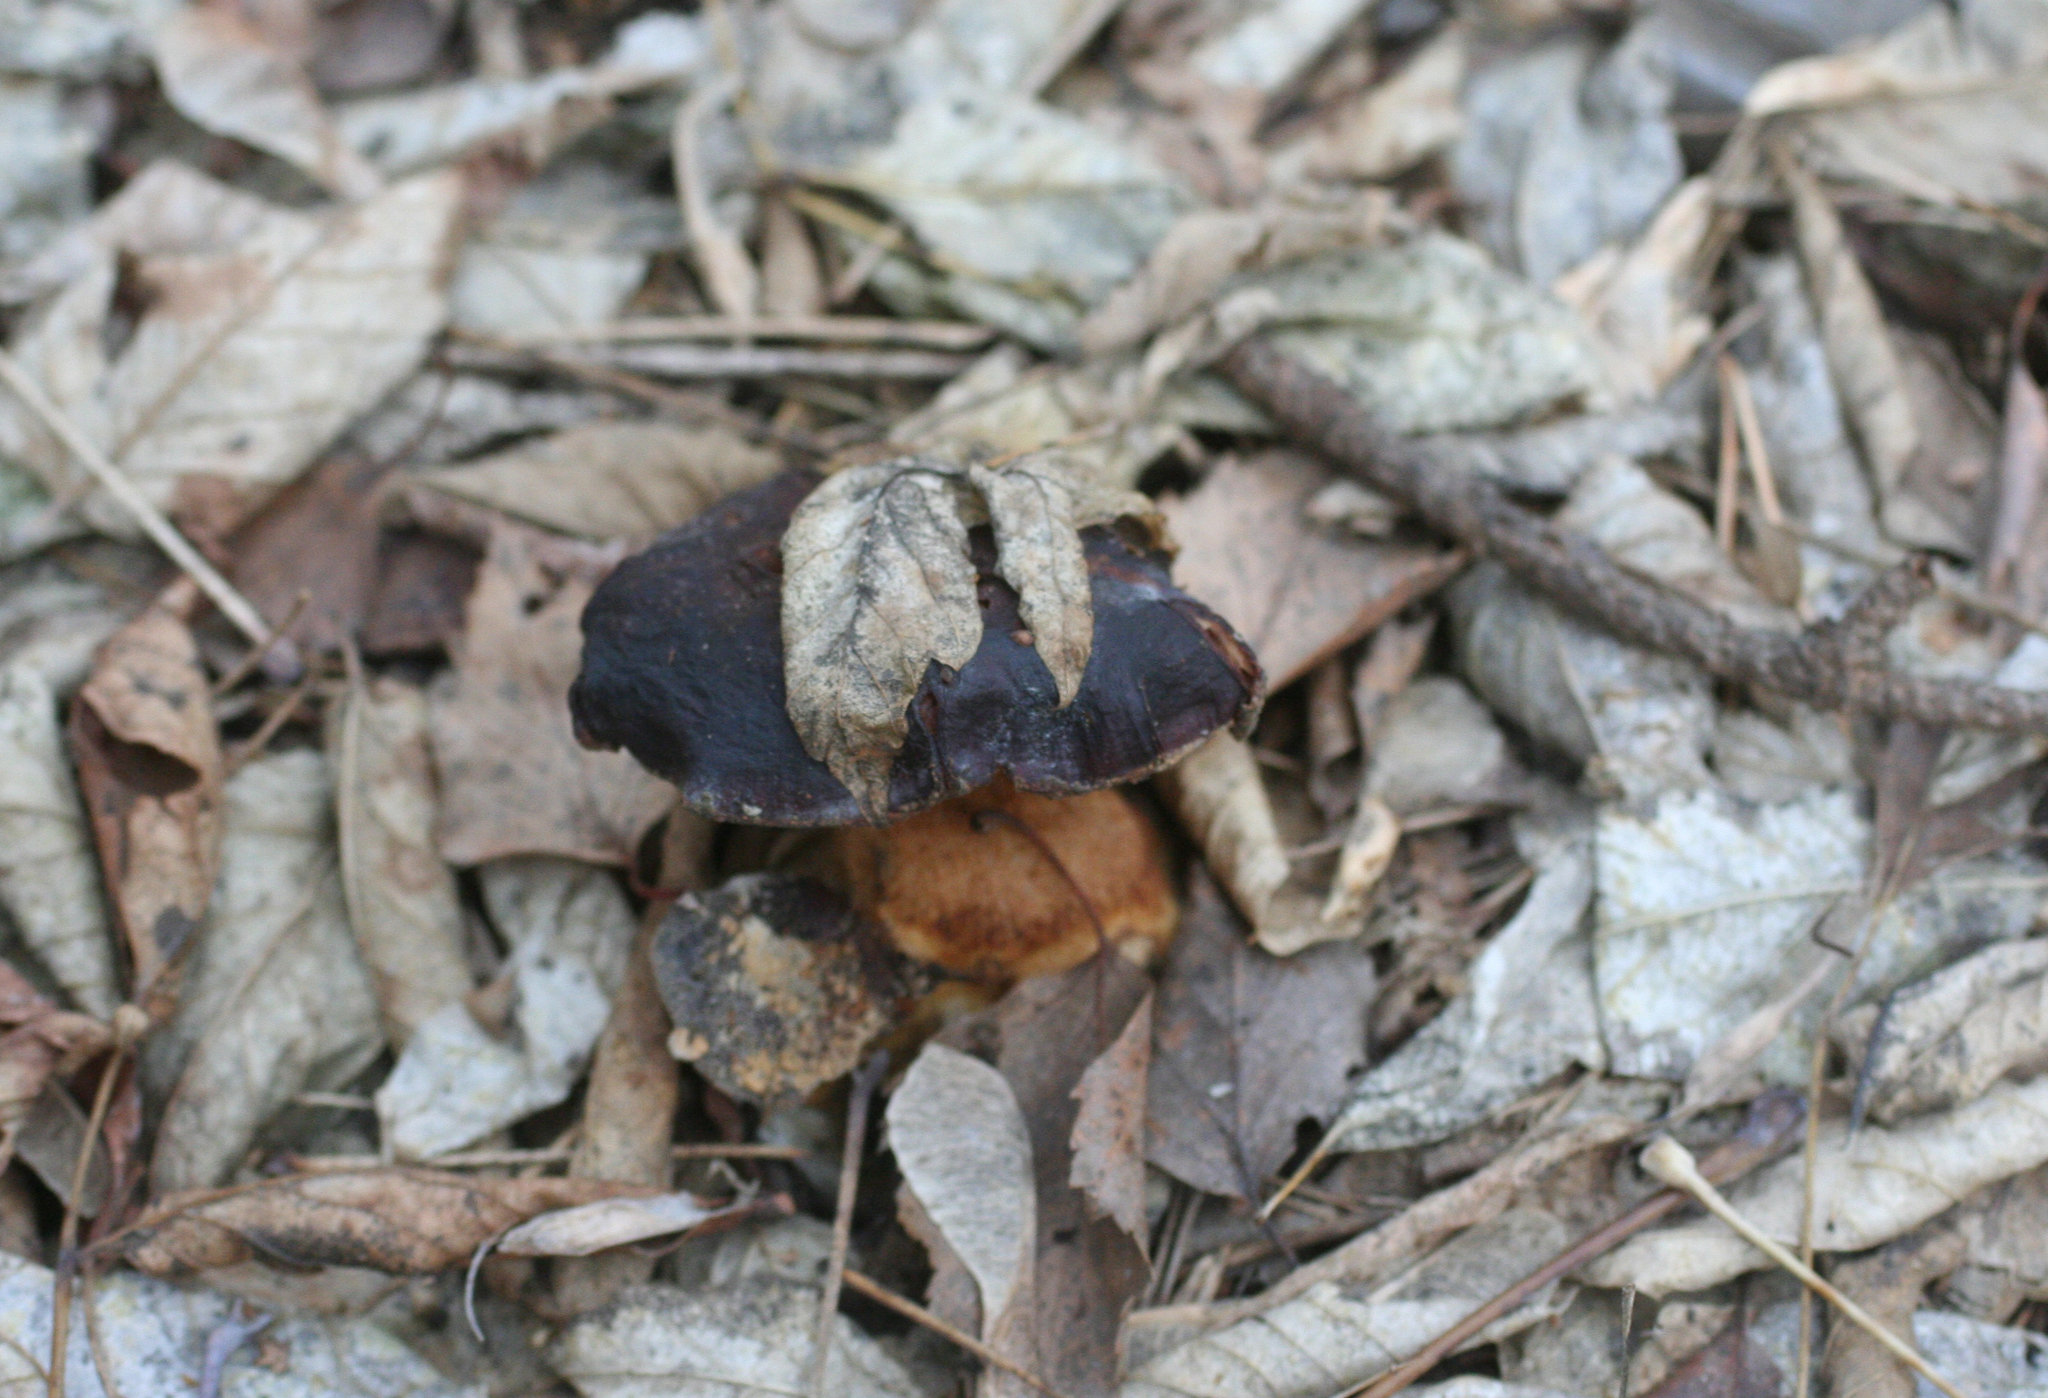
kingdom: Fungi
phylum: Basidiomycota
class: Agaricomycetes
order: Boletales
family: Tapinellaceae
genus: Tapinella
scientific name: Tapinella atrotomentosa
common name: Velvet rollrim
